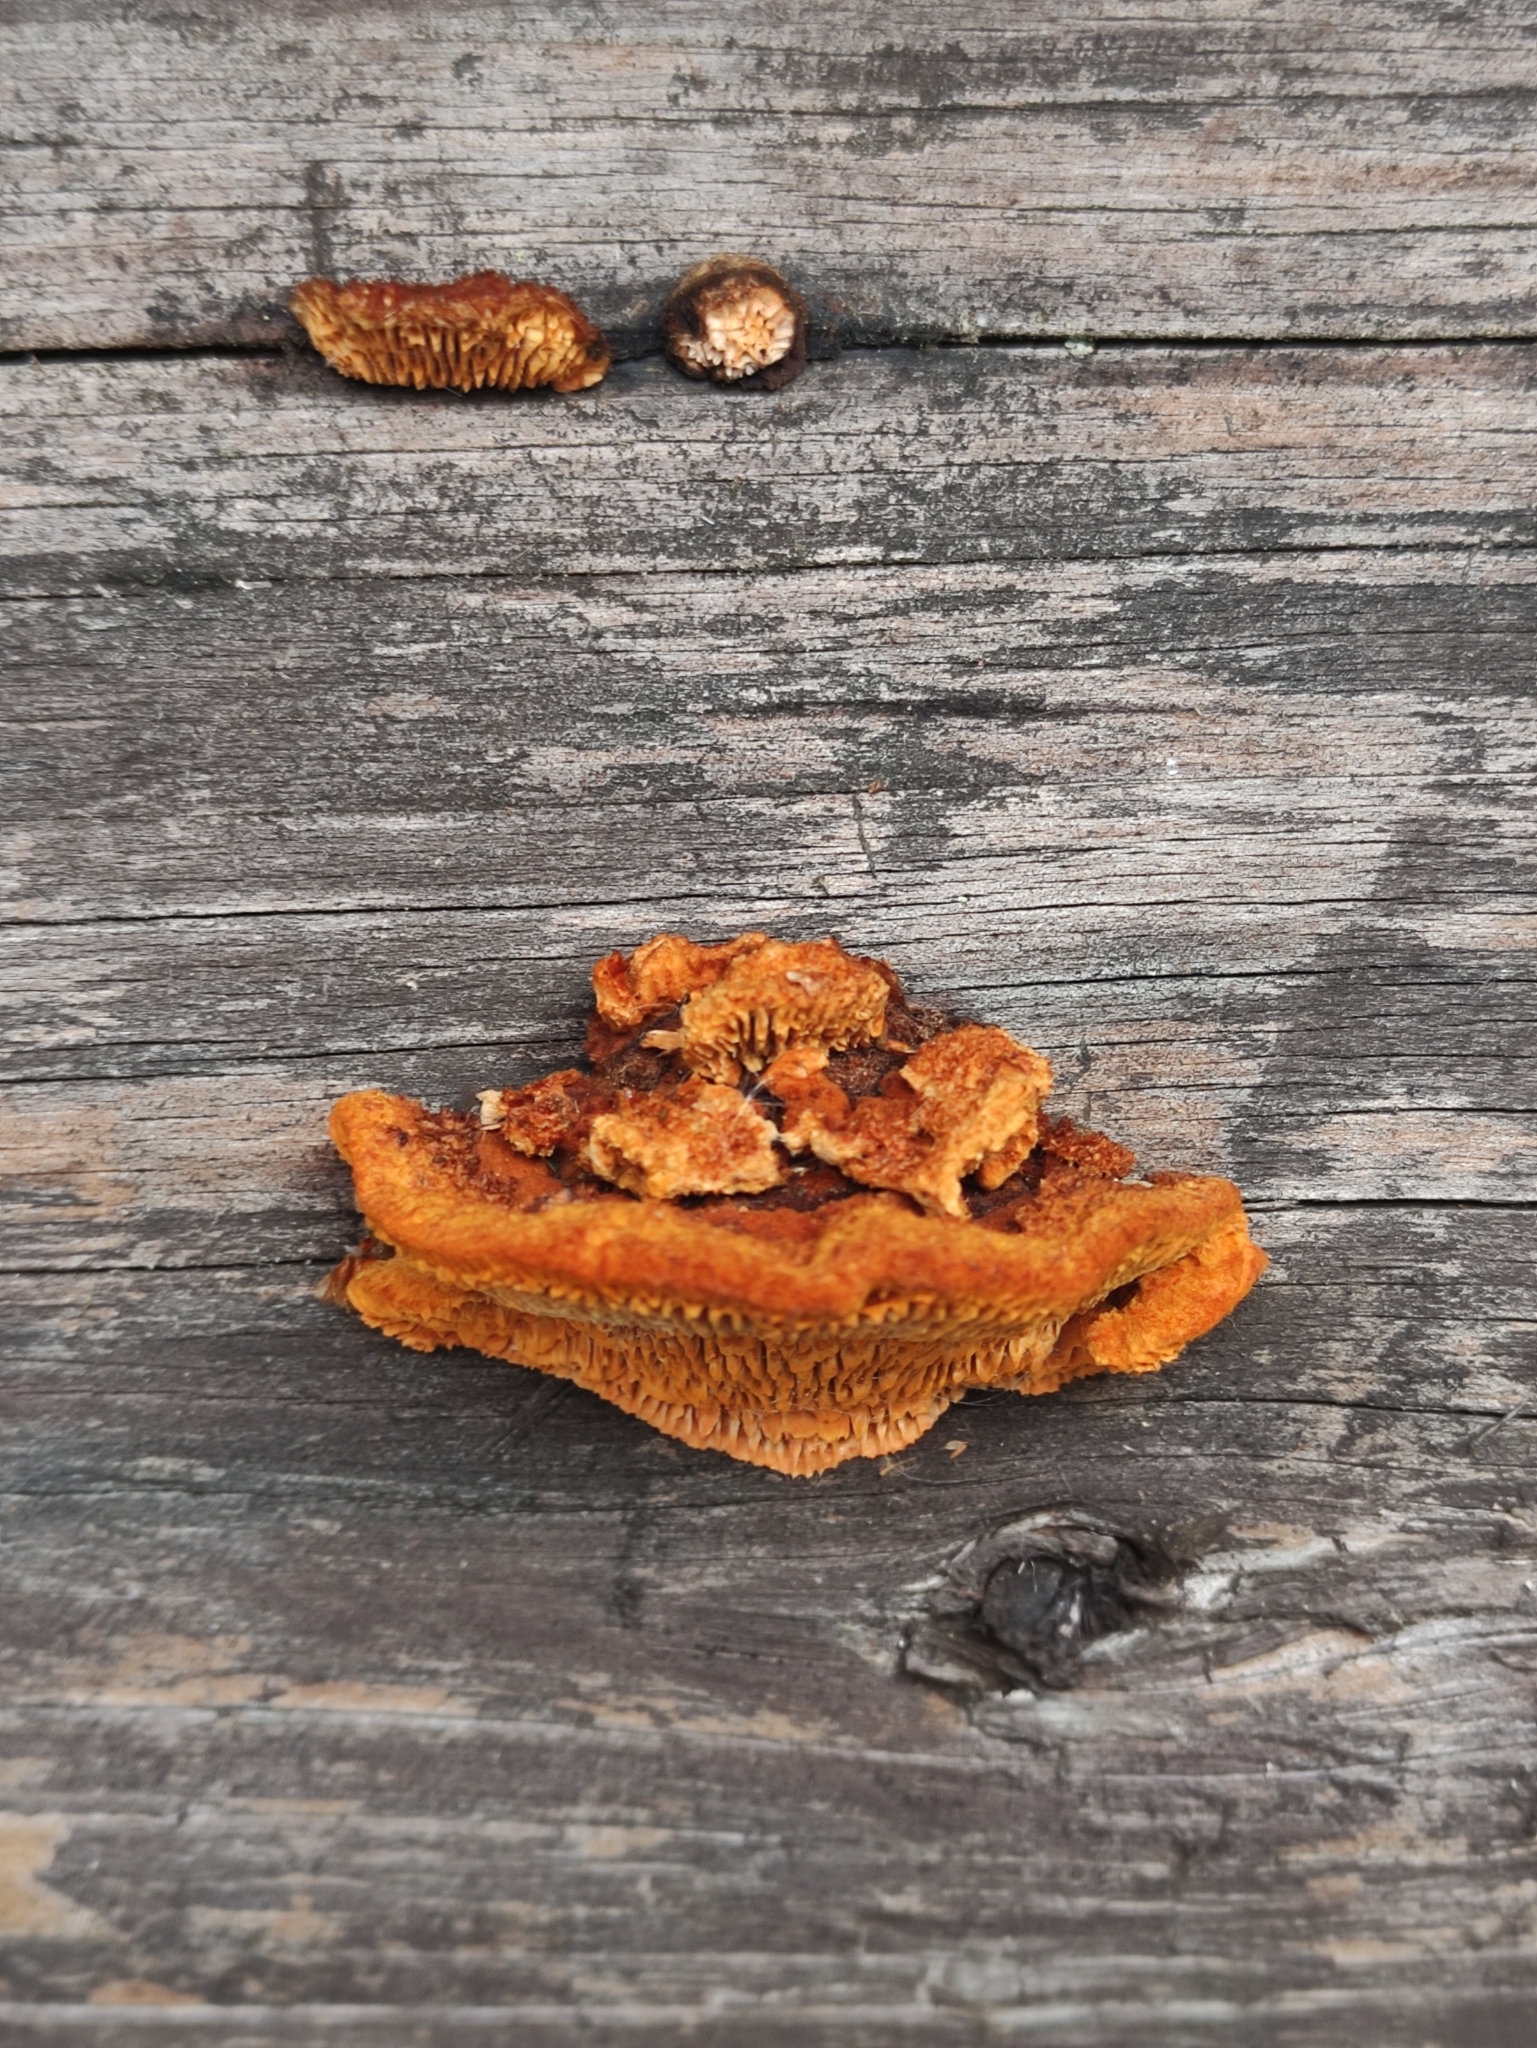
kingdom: Fungi
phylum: Basidiomycota
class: Agaricomycetes
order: Gloeophyllales
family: Gloeophyllaceae
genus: Gloeophyllum
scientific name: Gloeophyllum sepiarium
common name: Conifer mazegill
